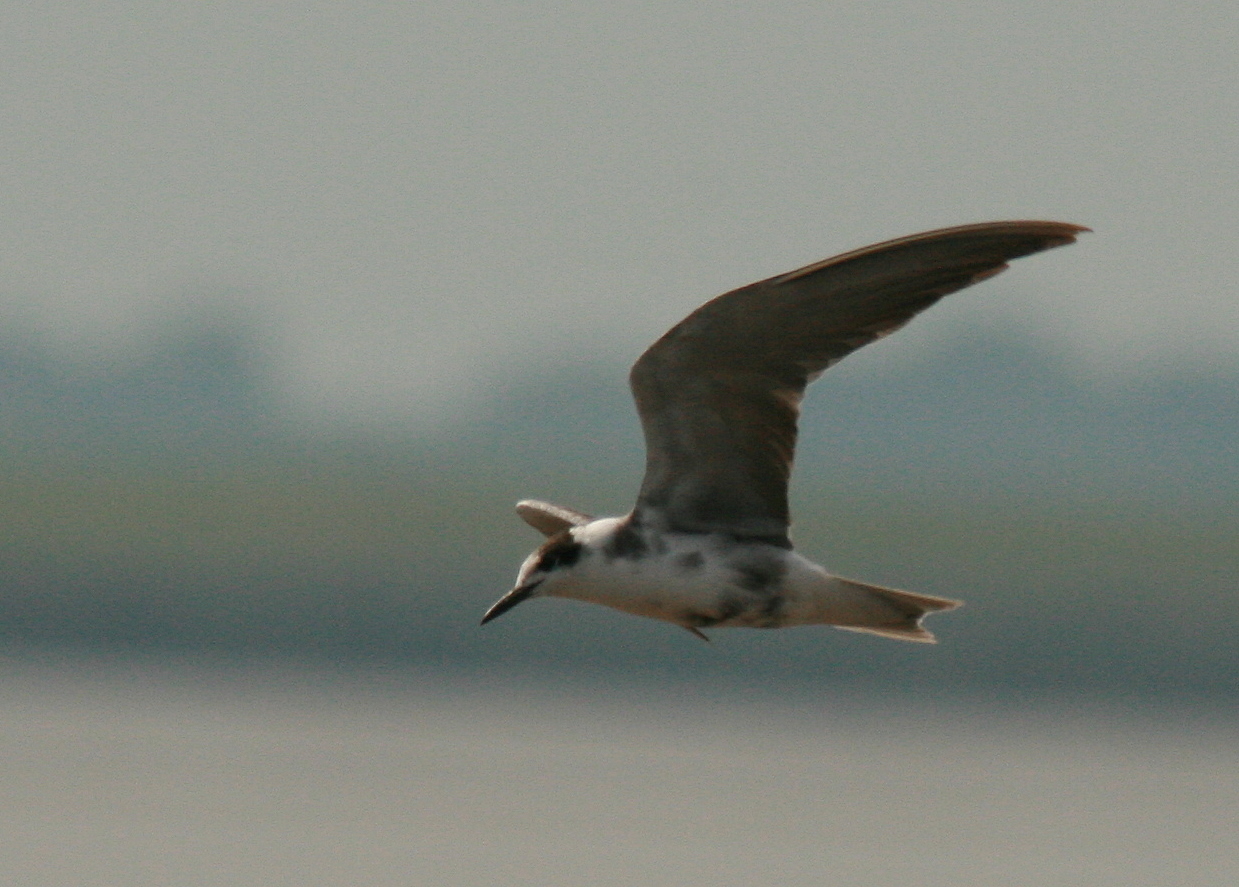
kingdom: Animalia
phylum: Chordata
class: Aves
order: Charadriiformes
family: Laridae
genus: Chlidonias
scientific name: Chlidonias niger
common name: Black tern
